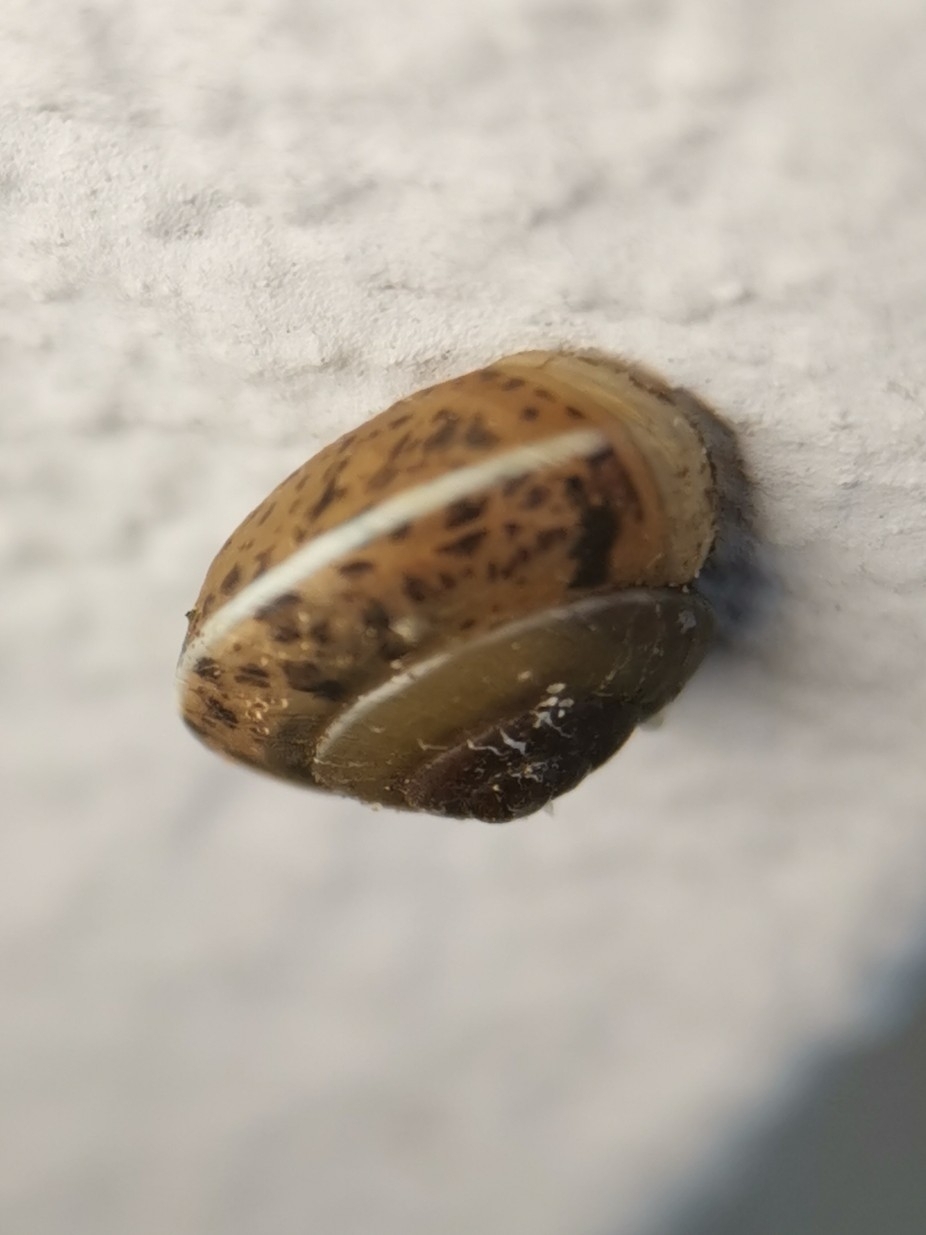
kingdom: Animalia
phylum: Mollusca
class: Gastropoda
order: Stylommatophora
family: Hygromiidae
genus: Hygromia
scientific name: Hygromia cinctella
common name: Girdled snail
